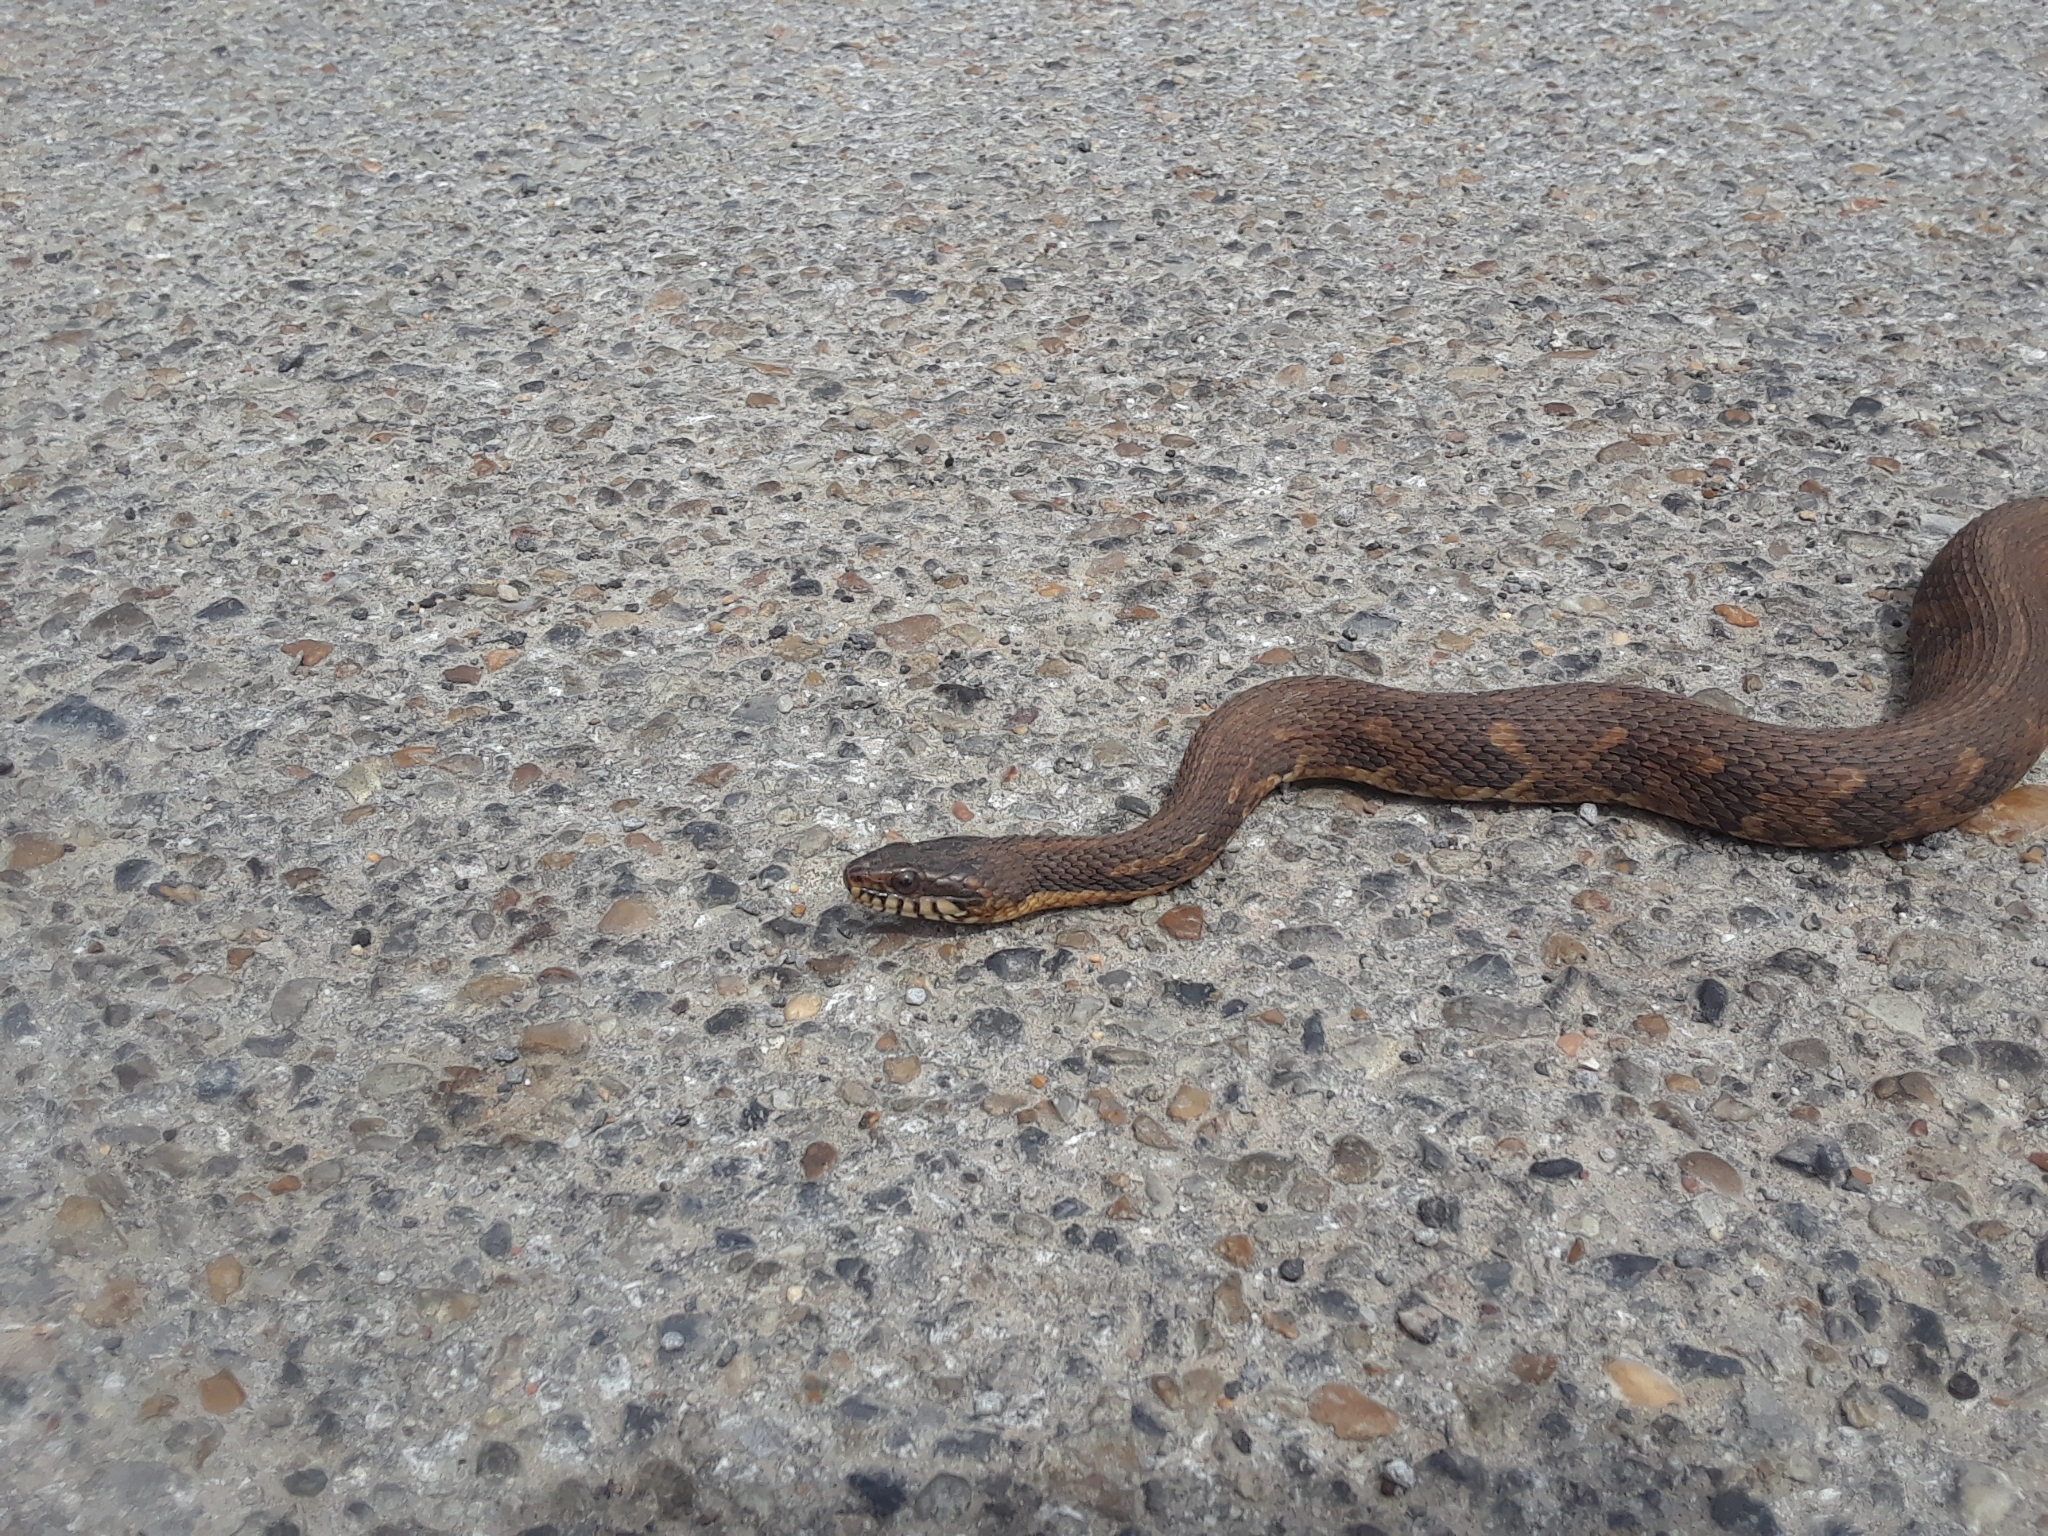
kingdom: Animalia
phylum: Chordata
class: Squamata
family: Colubridae
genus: Nerodia
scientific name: Nerodia
